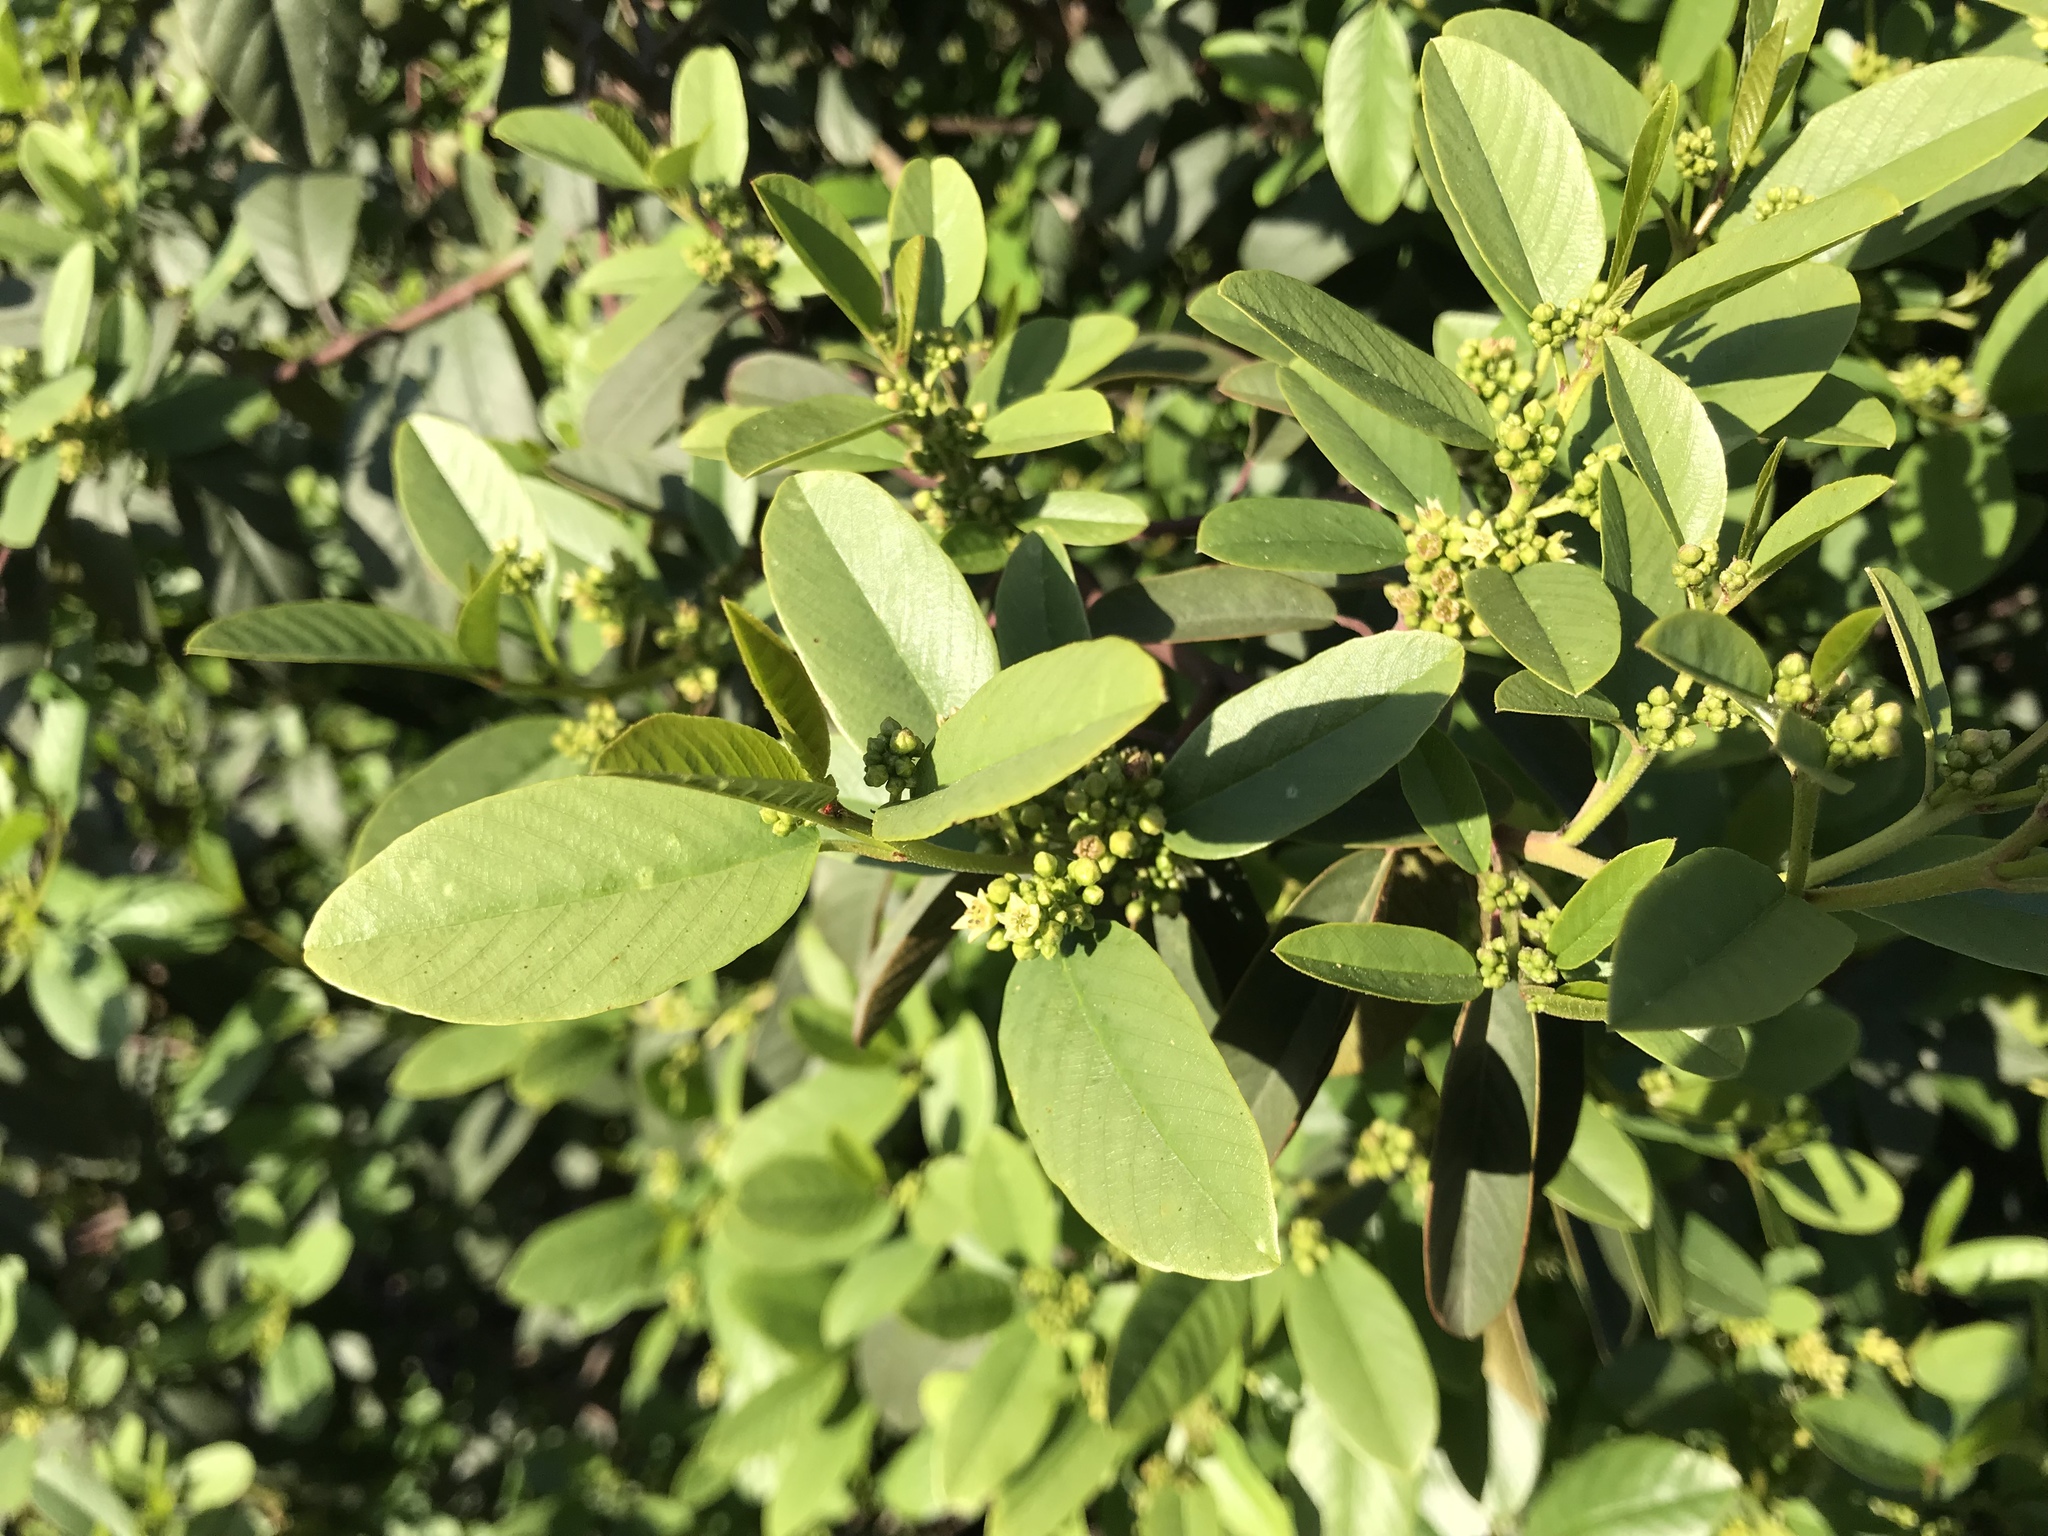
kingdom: Plantae
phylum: Tracheophyta
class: Magnoliopsida
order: Rosales
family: Rhamnaceae
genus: Frangula
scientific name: Frangula californica
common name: California buckthorn
